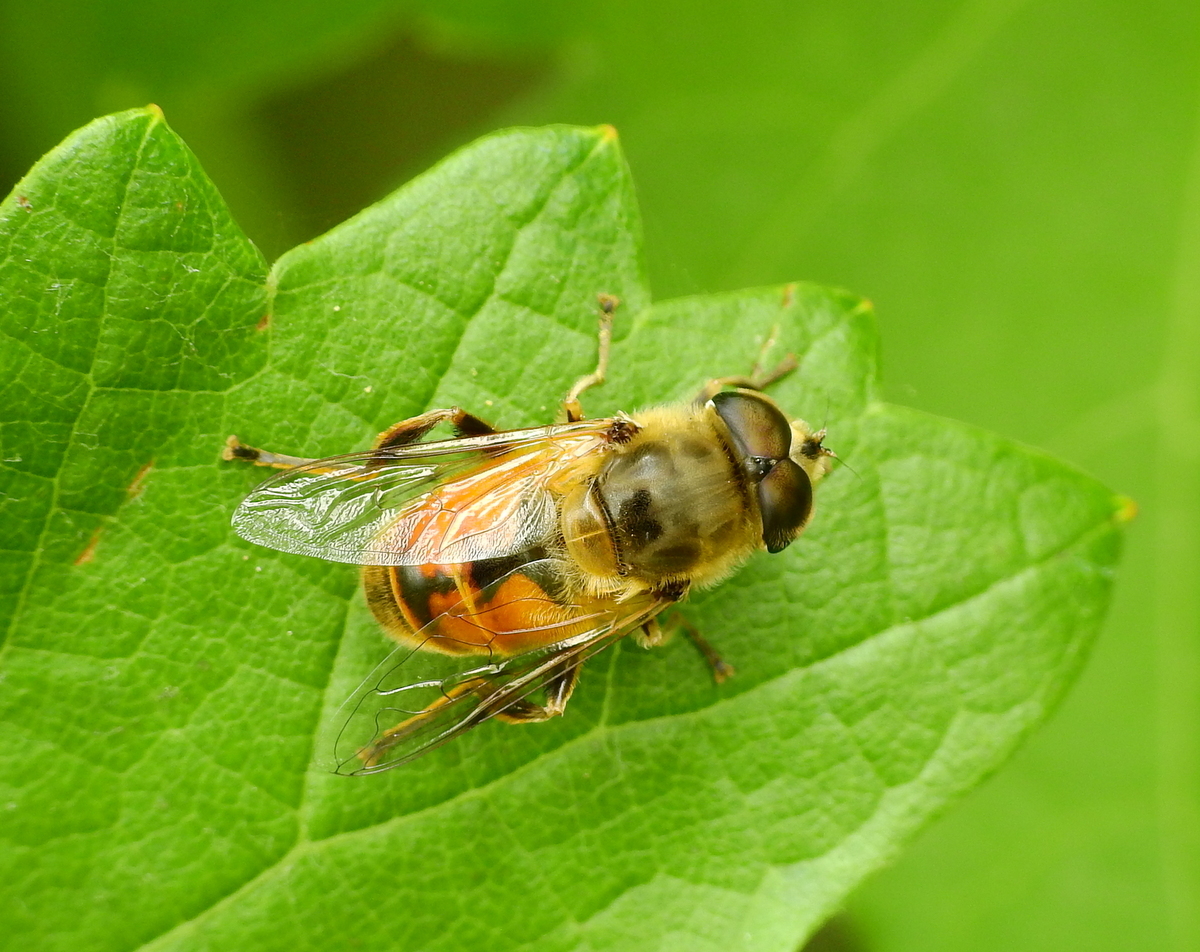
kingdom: Animalia
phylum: Arthropoda
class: Insecta
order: Diptera
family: Syrphidae
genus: Eristalis
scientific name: Eristalis tenax
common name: Drone fly
